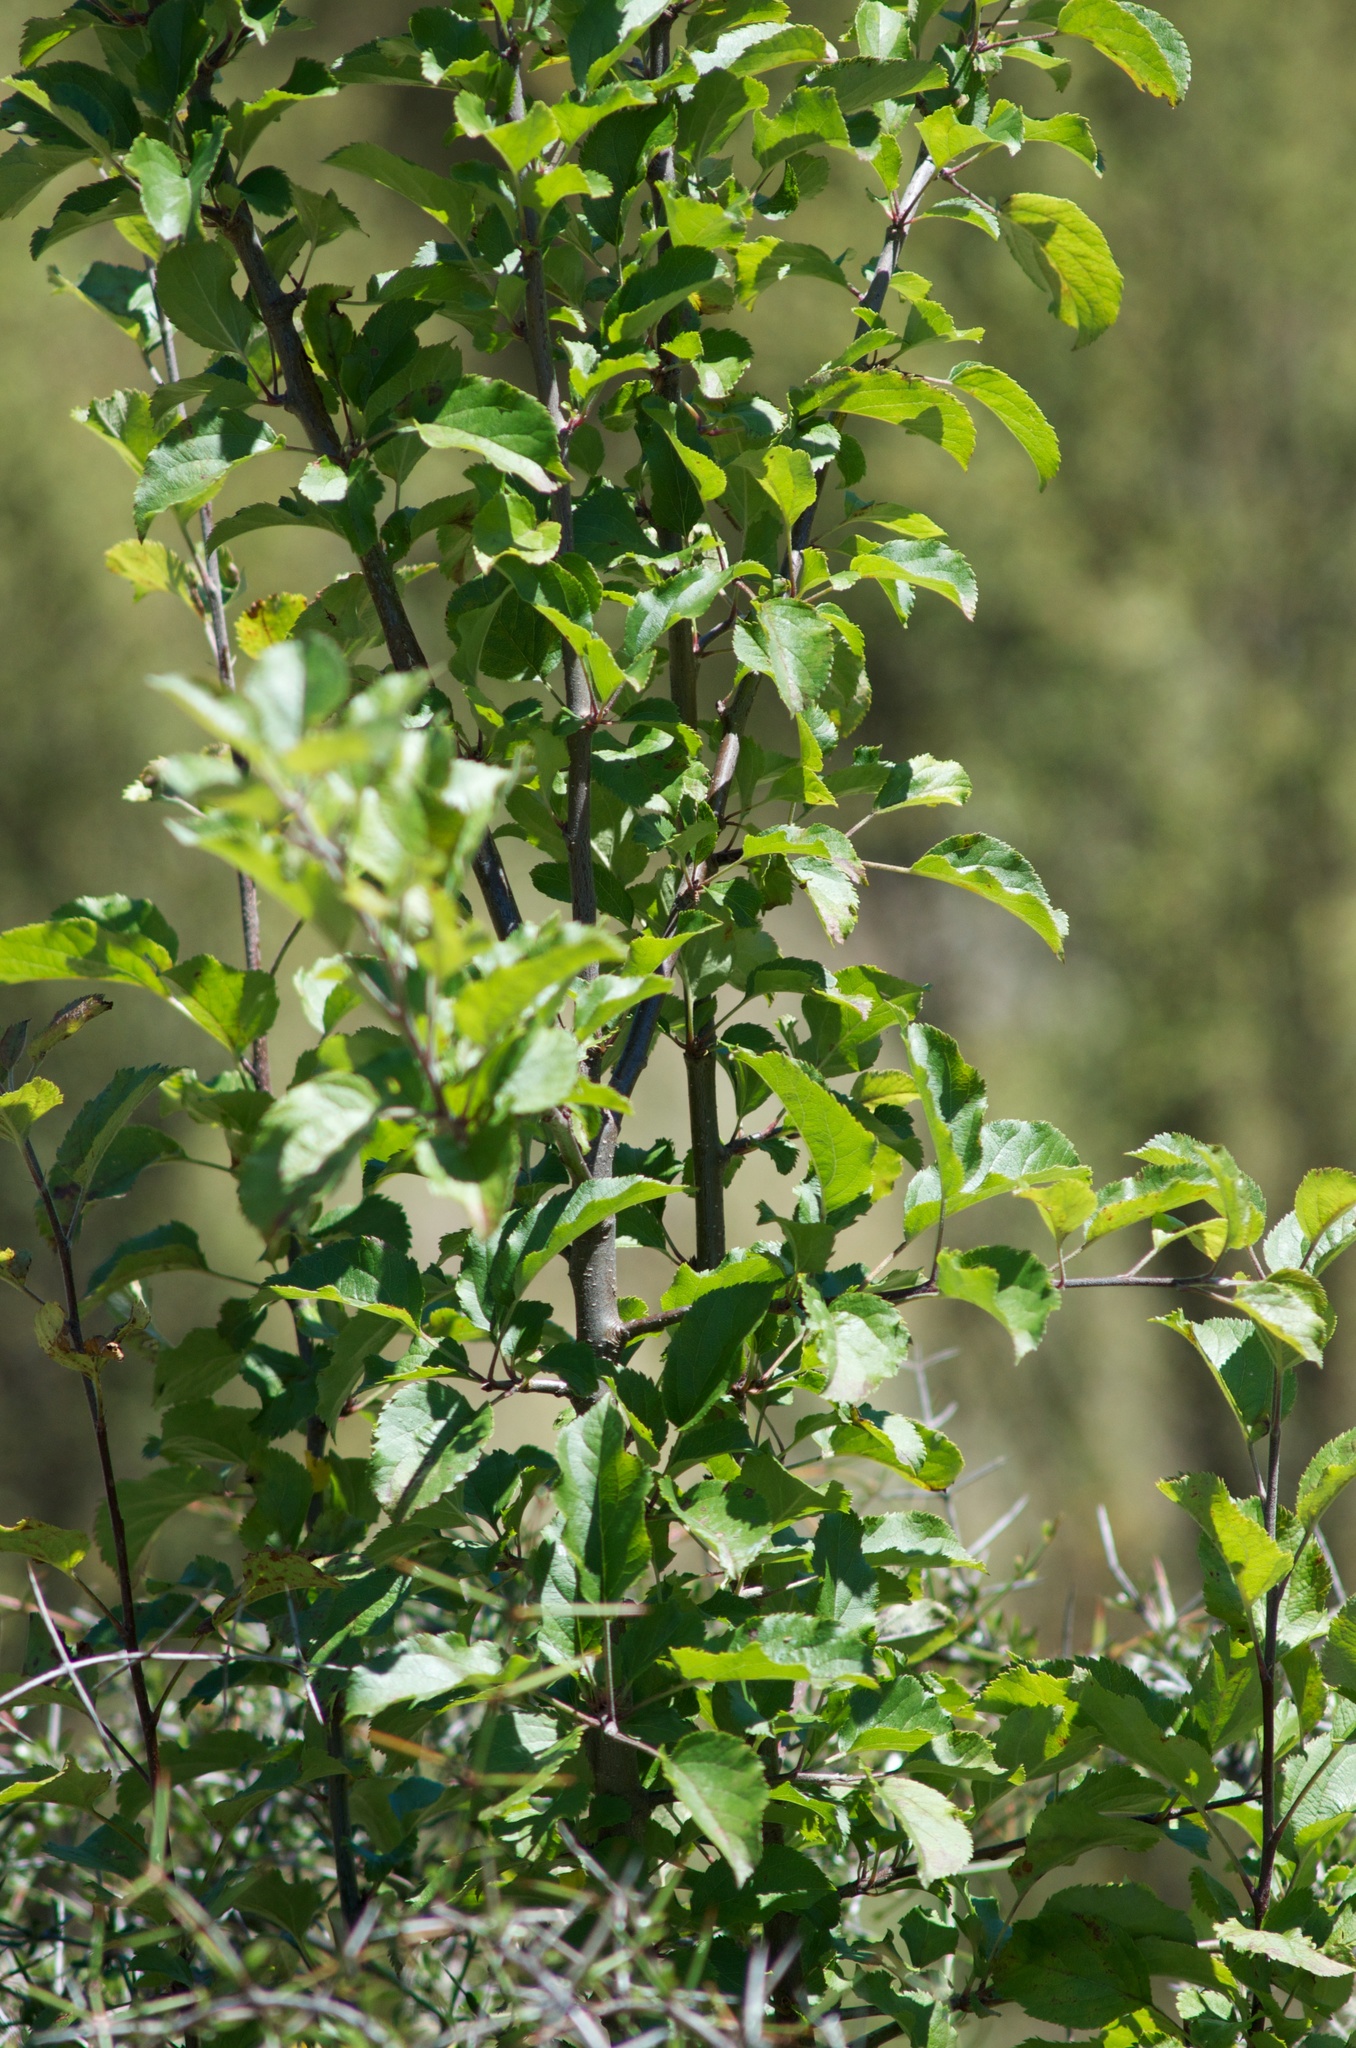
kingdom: Plantae
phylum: Tracheophyta
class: Magnoliopsida
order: Rosales
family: Rosaceae
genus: Malus
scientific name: Malus domestica
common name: Apple
